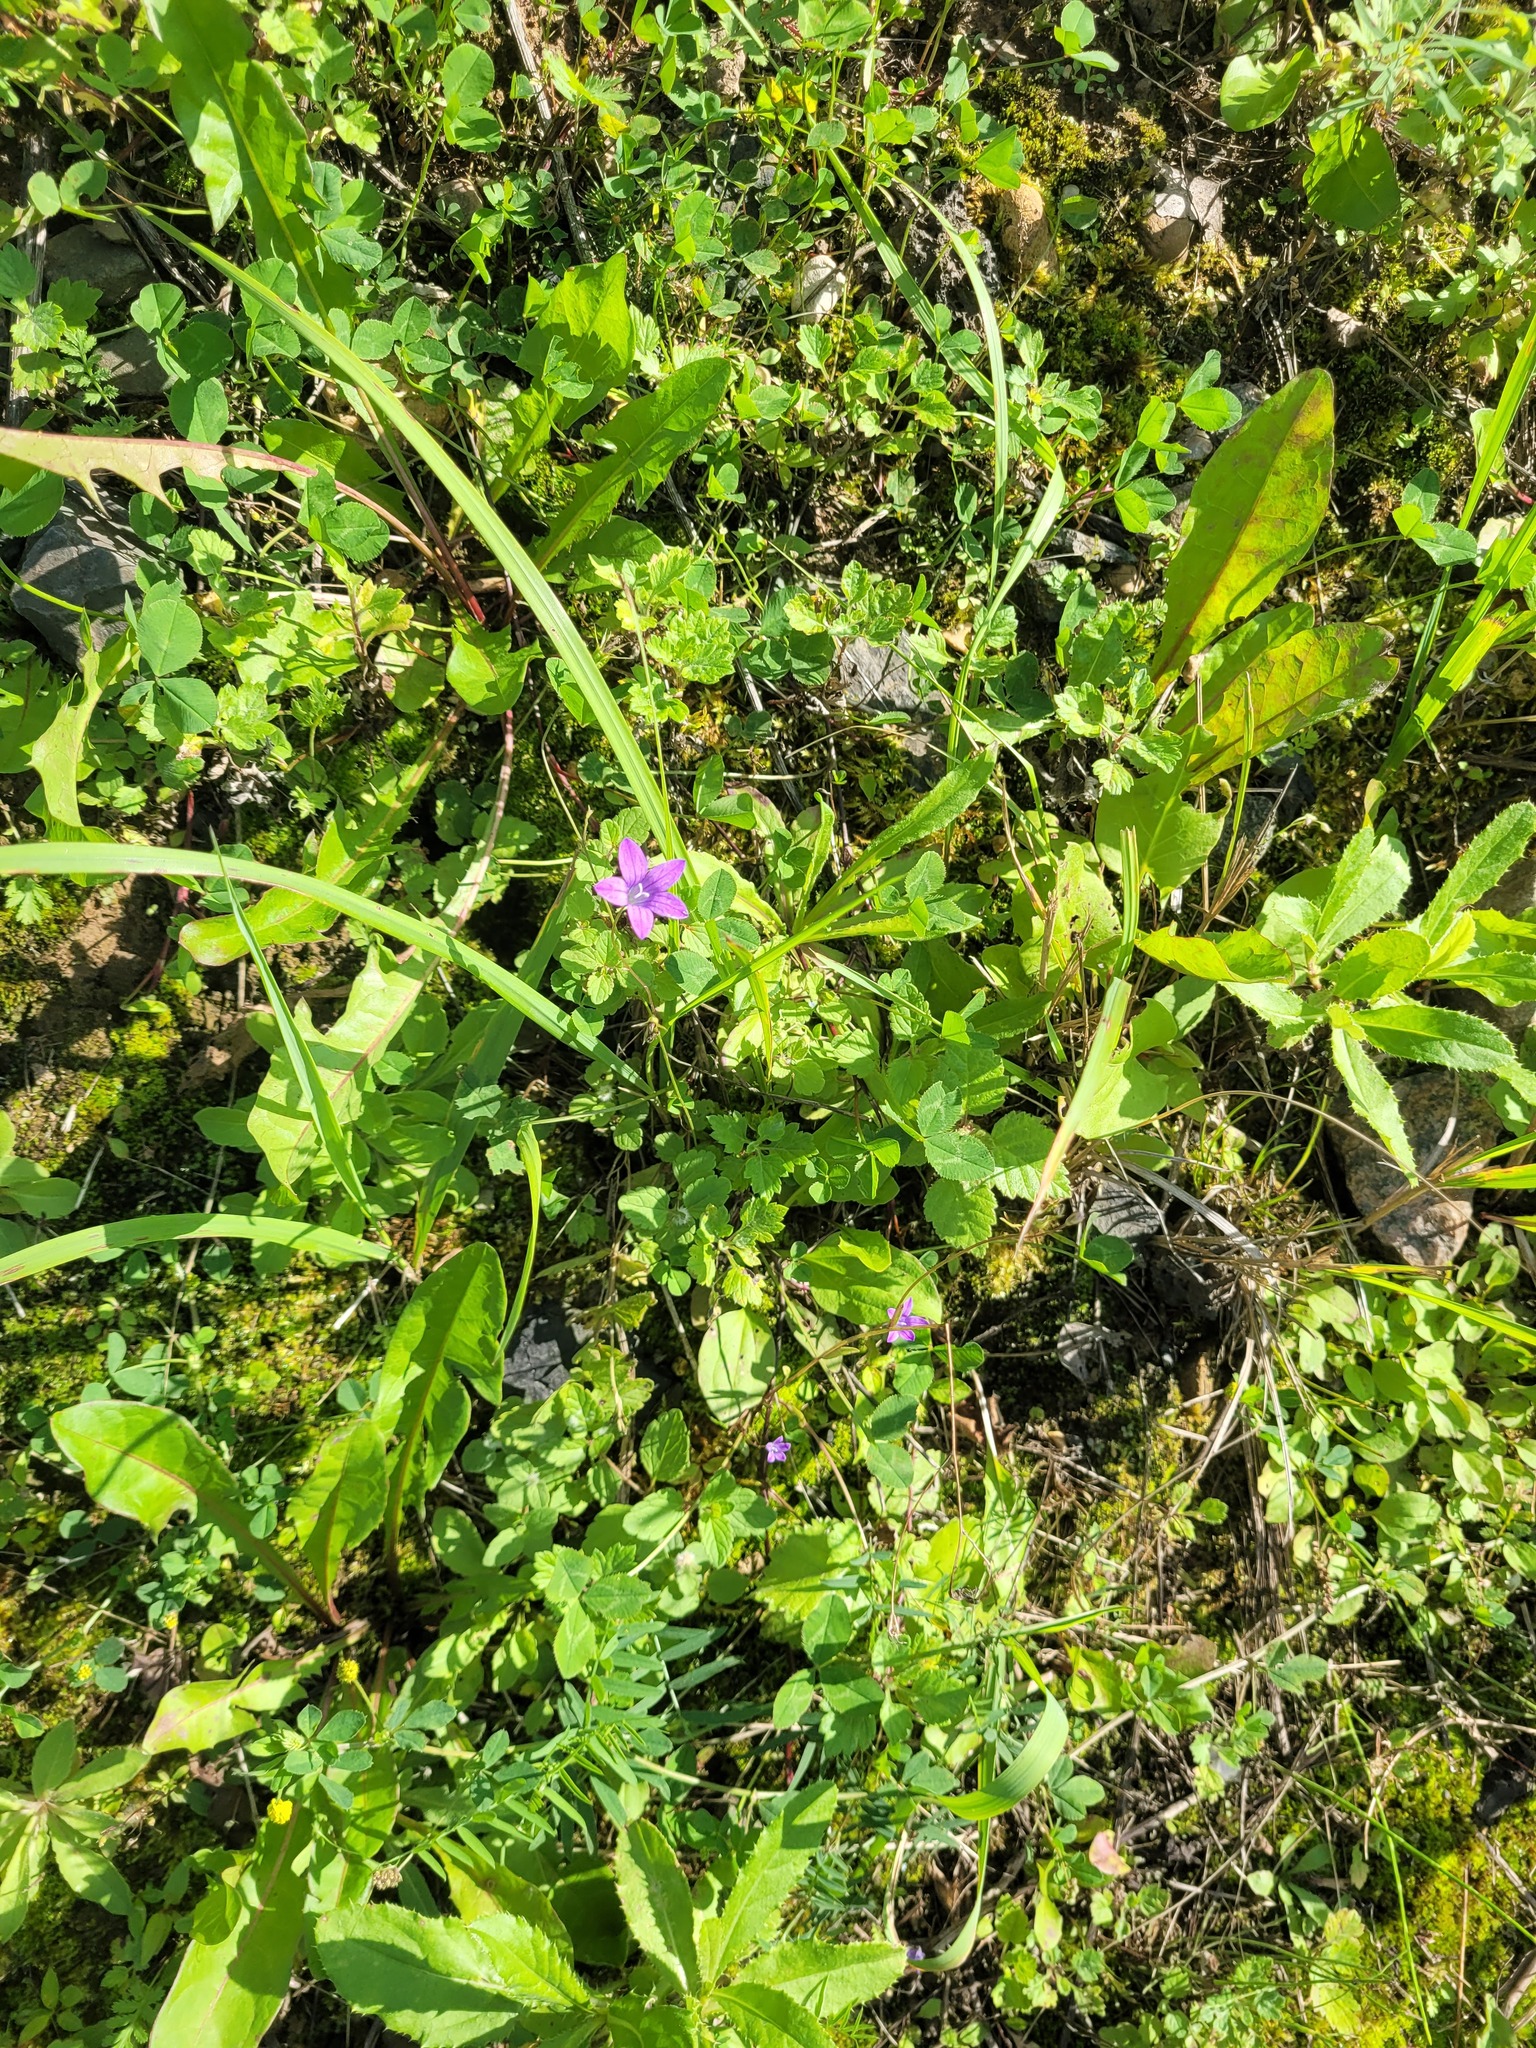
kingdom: Plantae
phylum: Tracheophyta
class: Magnoliopsida
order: Asterales
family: Campanulaceae
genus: Campanula
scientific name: Campanula patula
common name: Spreading bellflower
